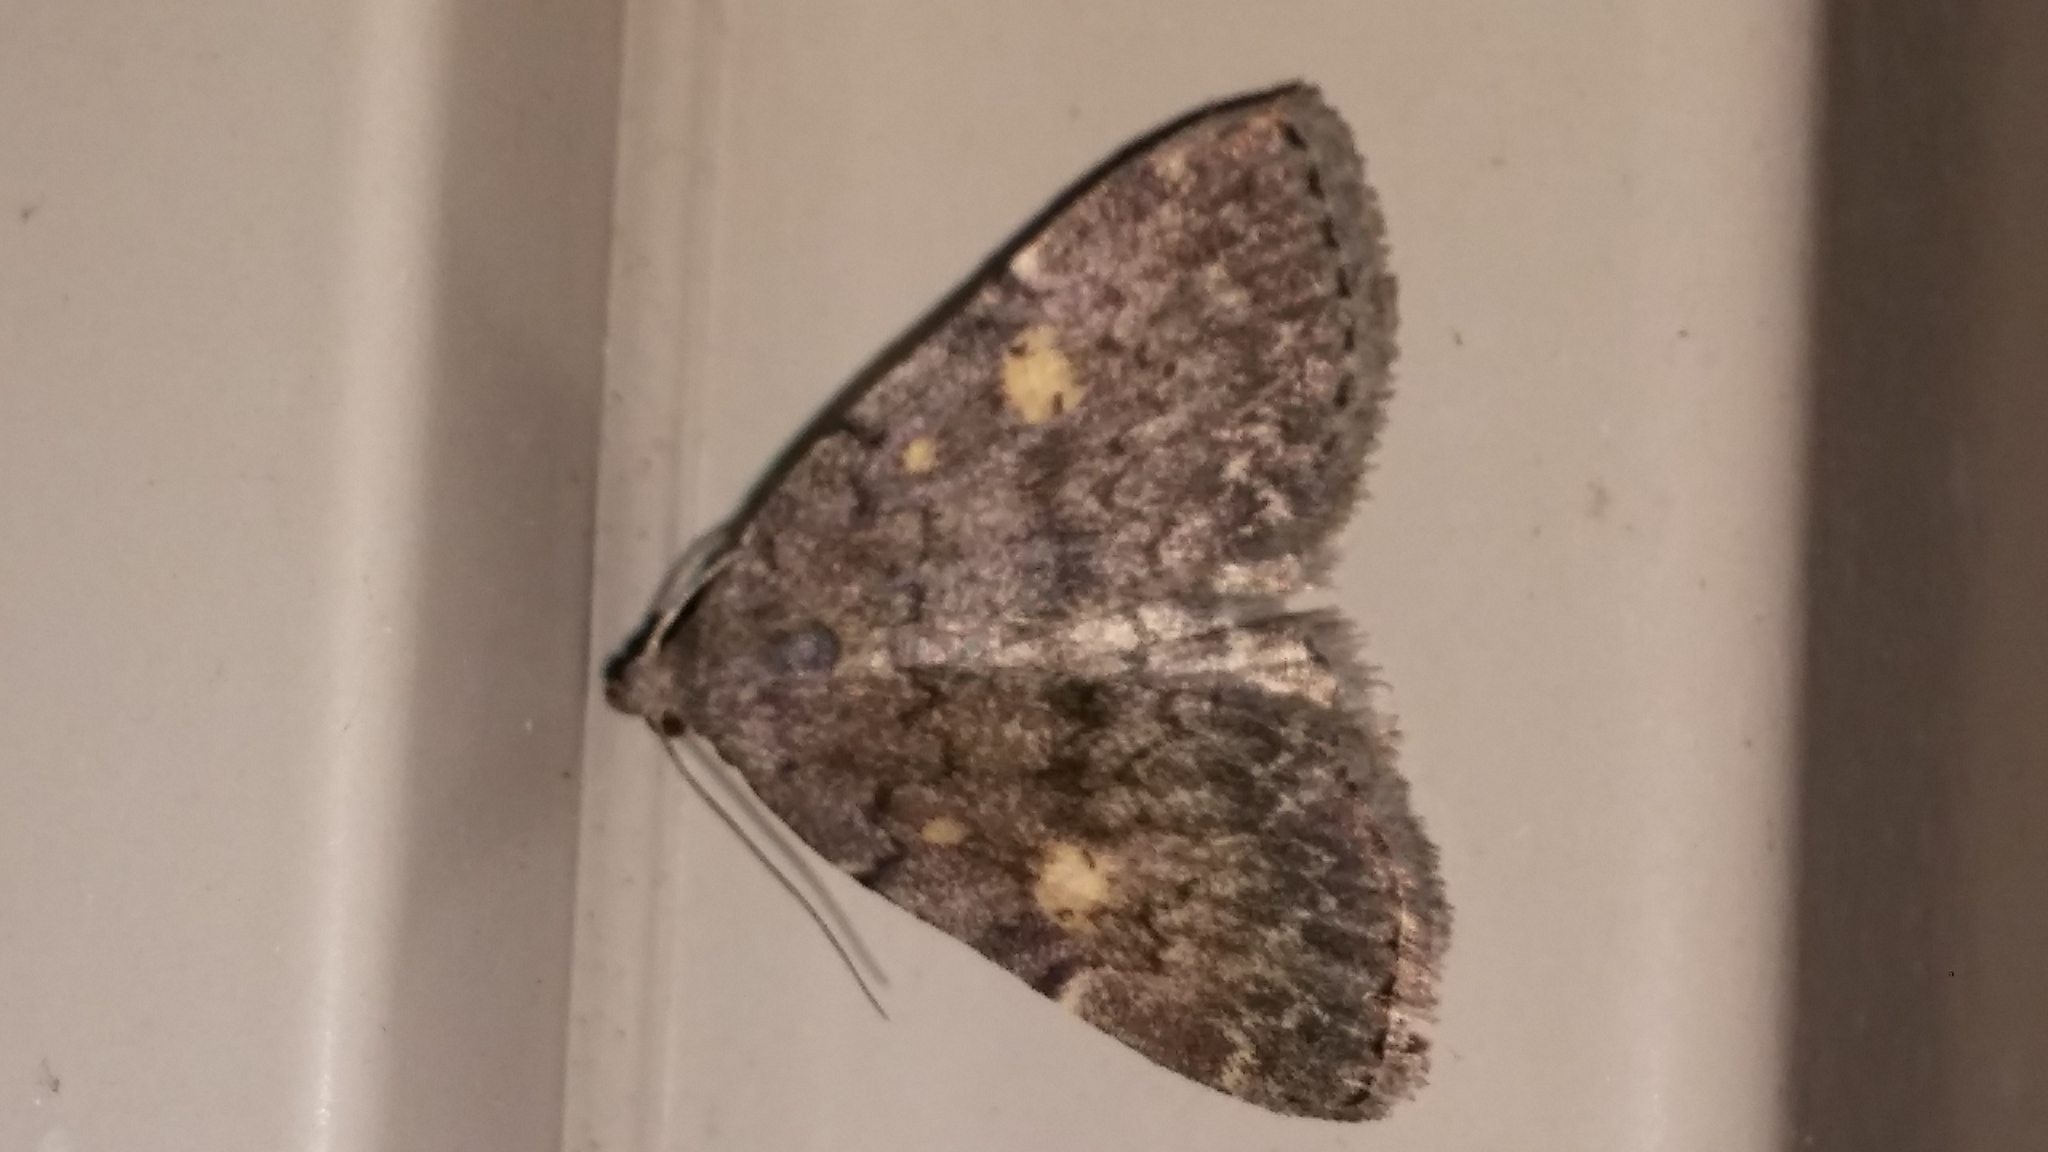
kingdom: Animalia
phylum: Arthropoda
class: Insecta
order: Lepidoptera
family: Erebidae
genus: Idia
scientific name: Idia aemula
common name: Common idia moth
